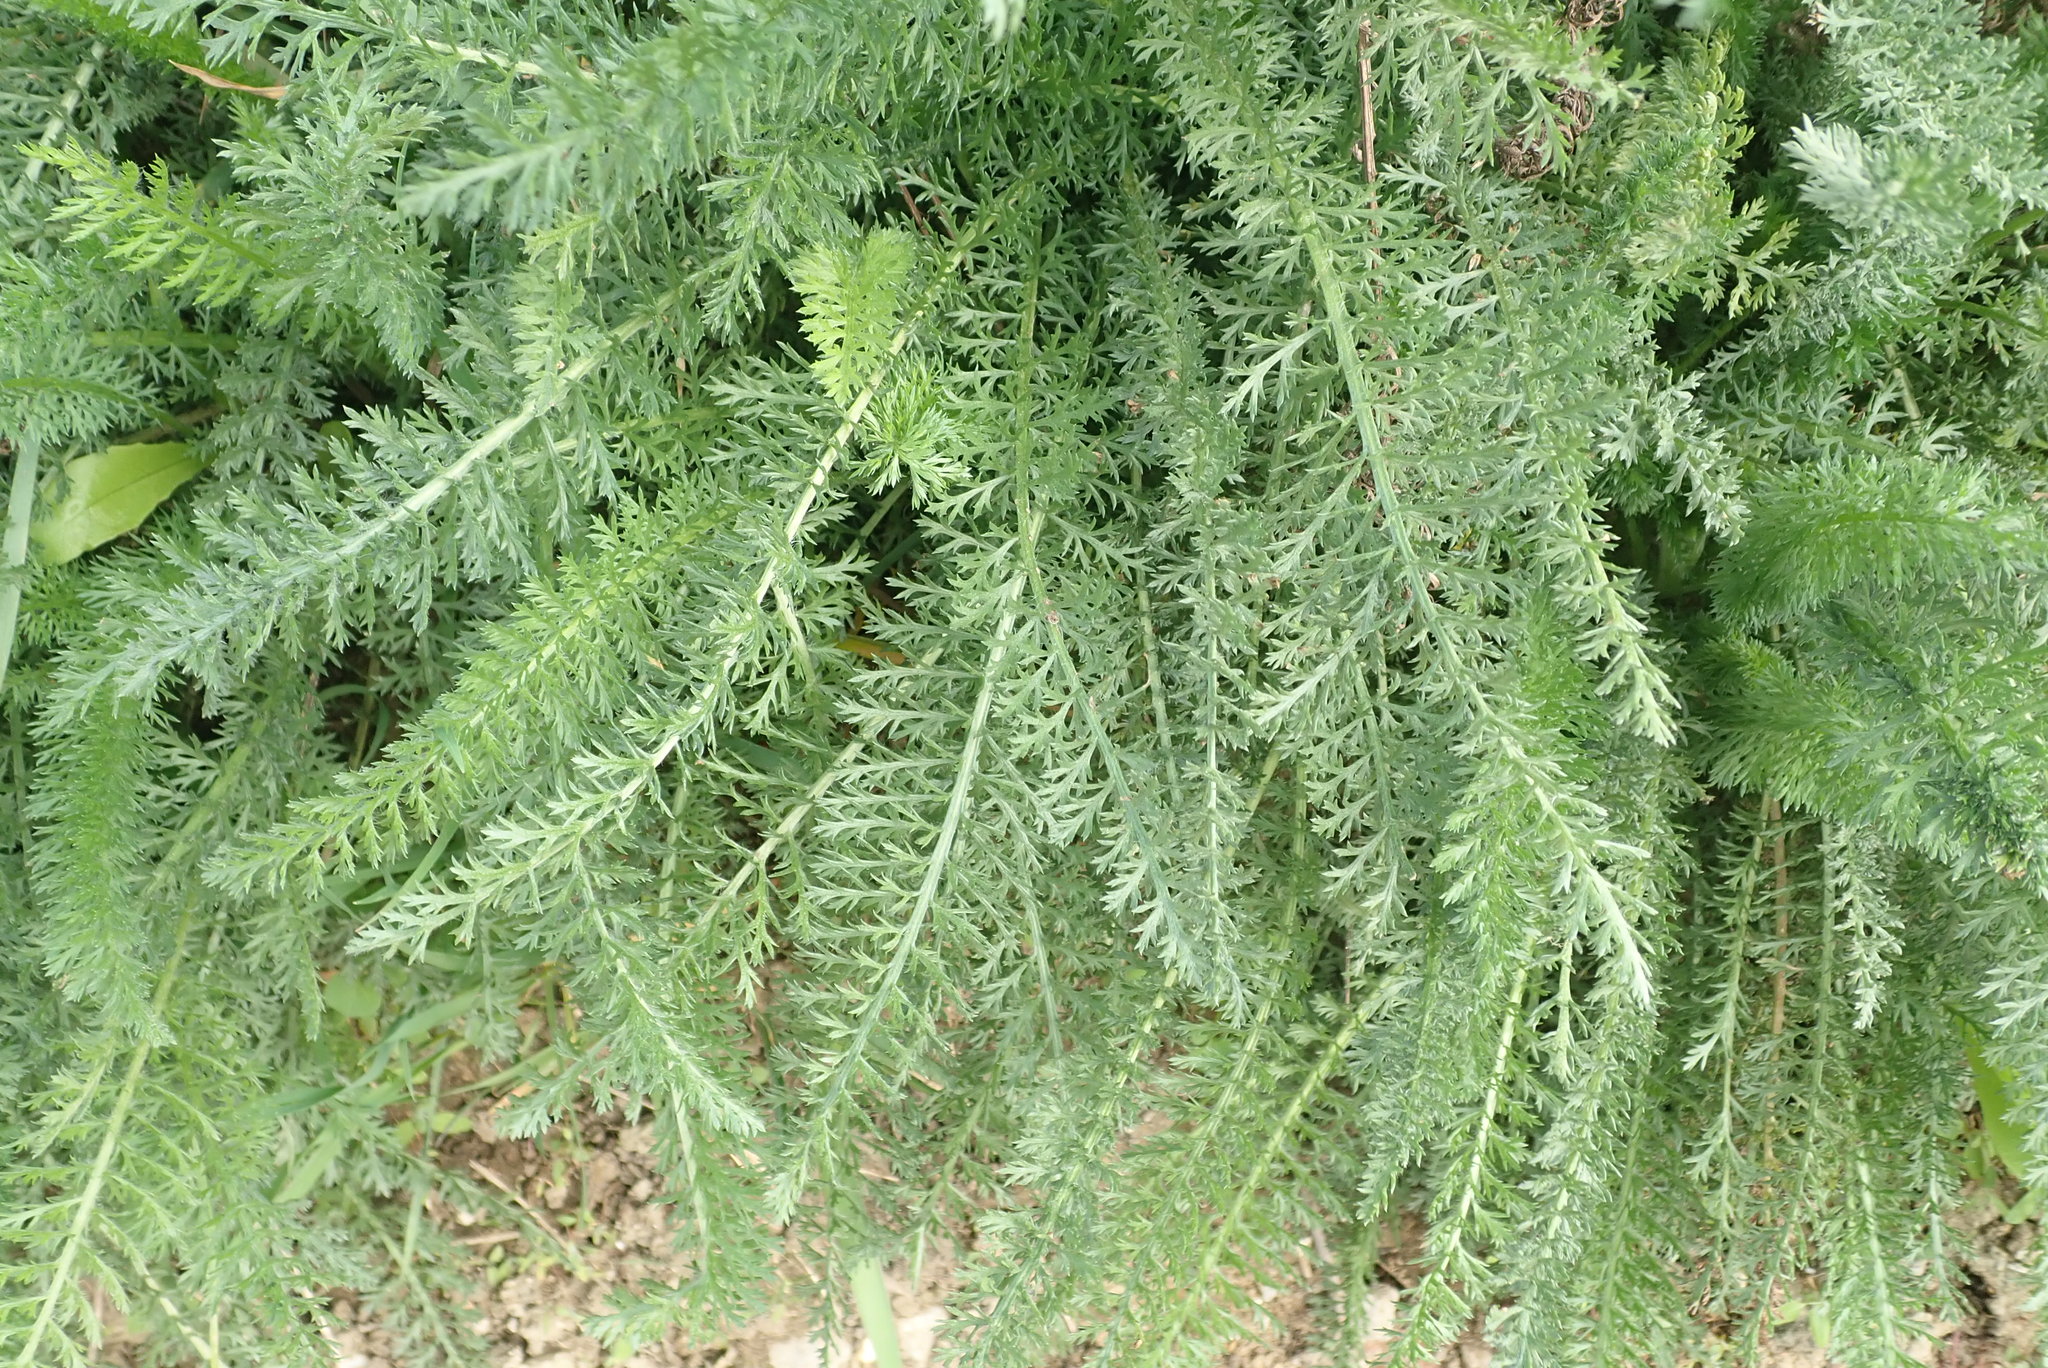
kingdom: Plantae
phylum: Tracheophyta
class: Magnoliopsida
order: Asterales
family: Asteraceae
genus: Achillea
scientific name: Achillea millefolium
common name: Yarrow
